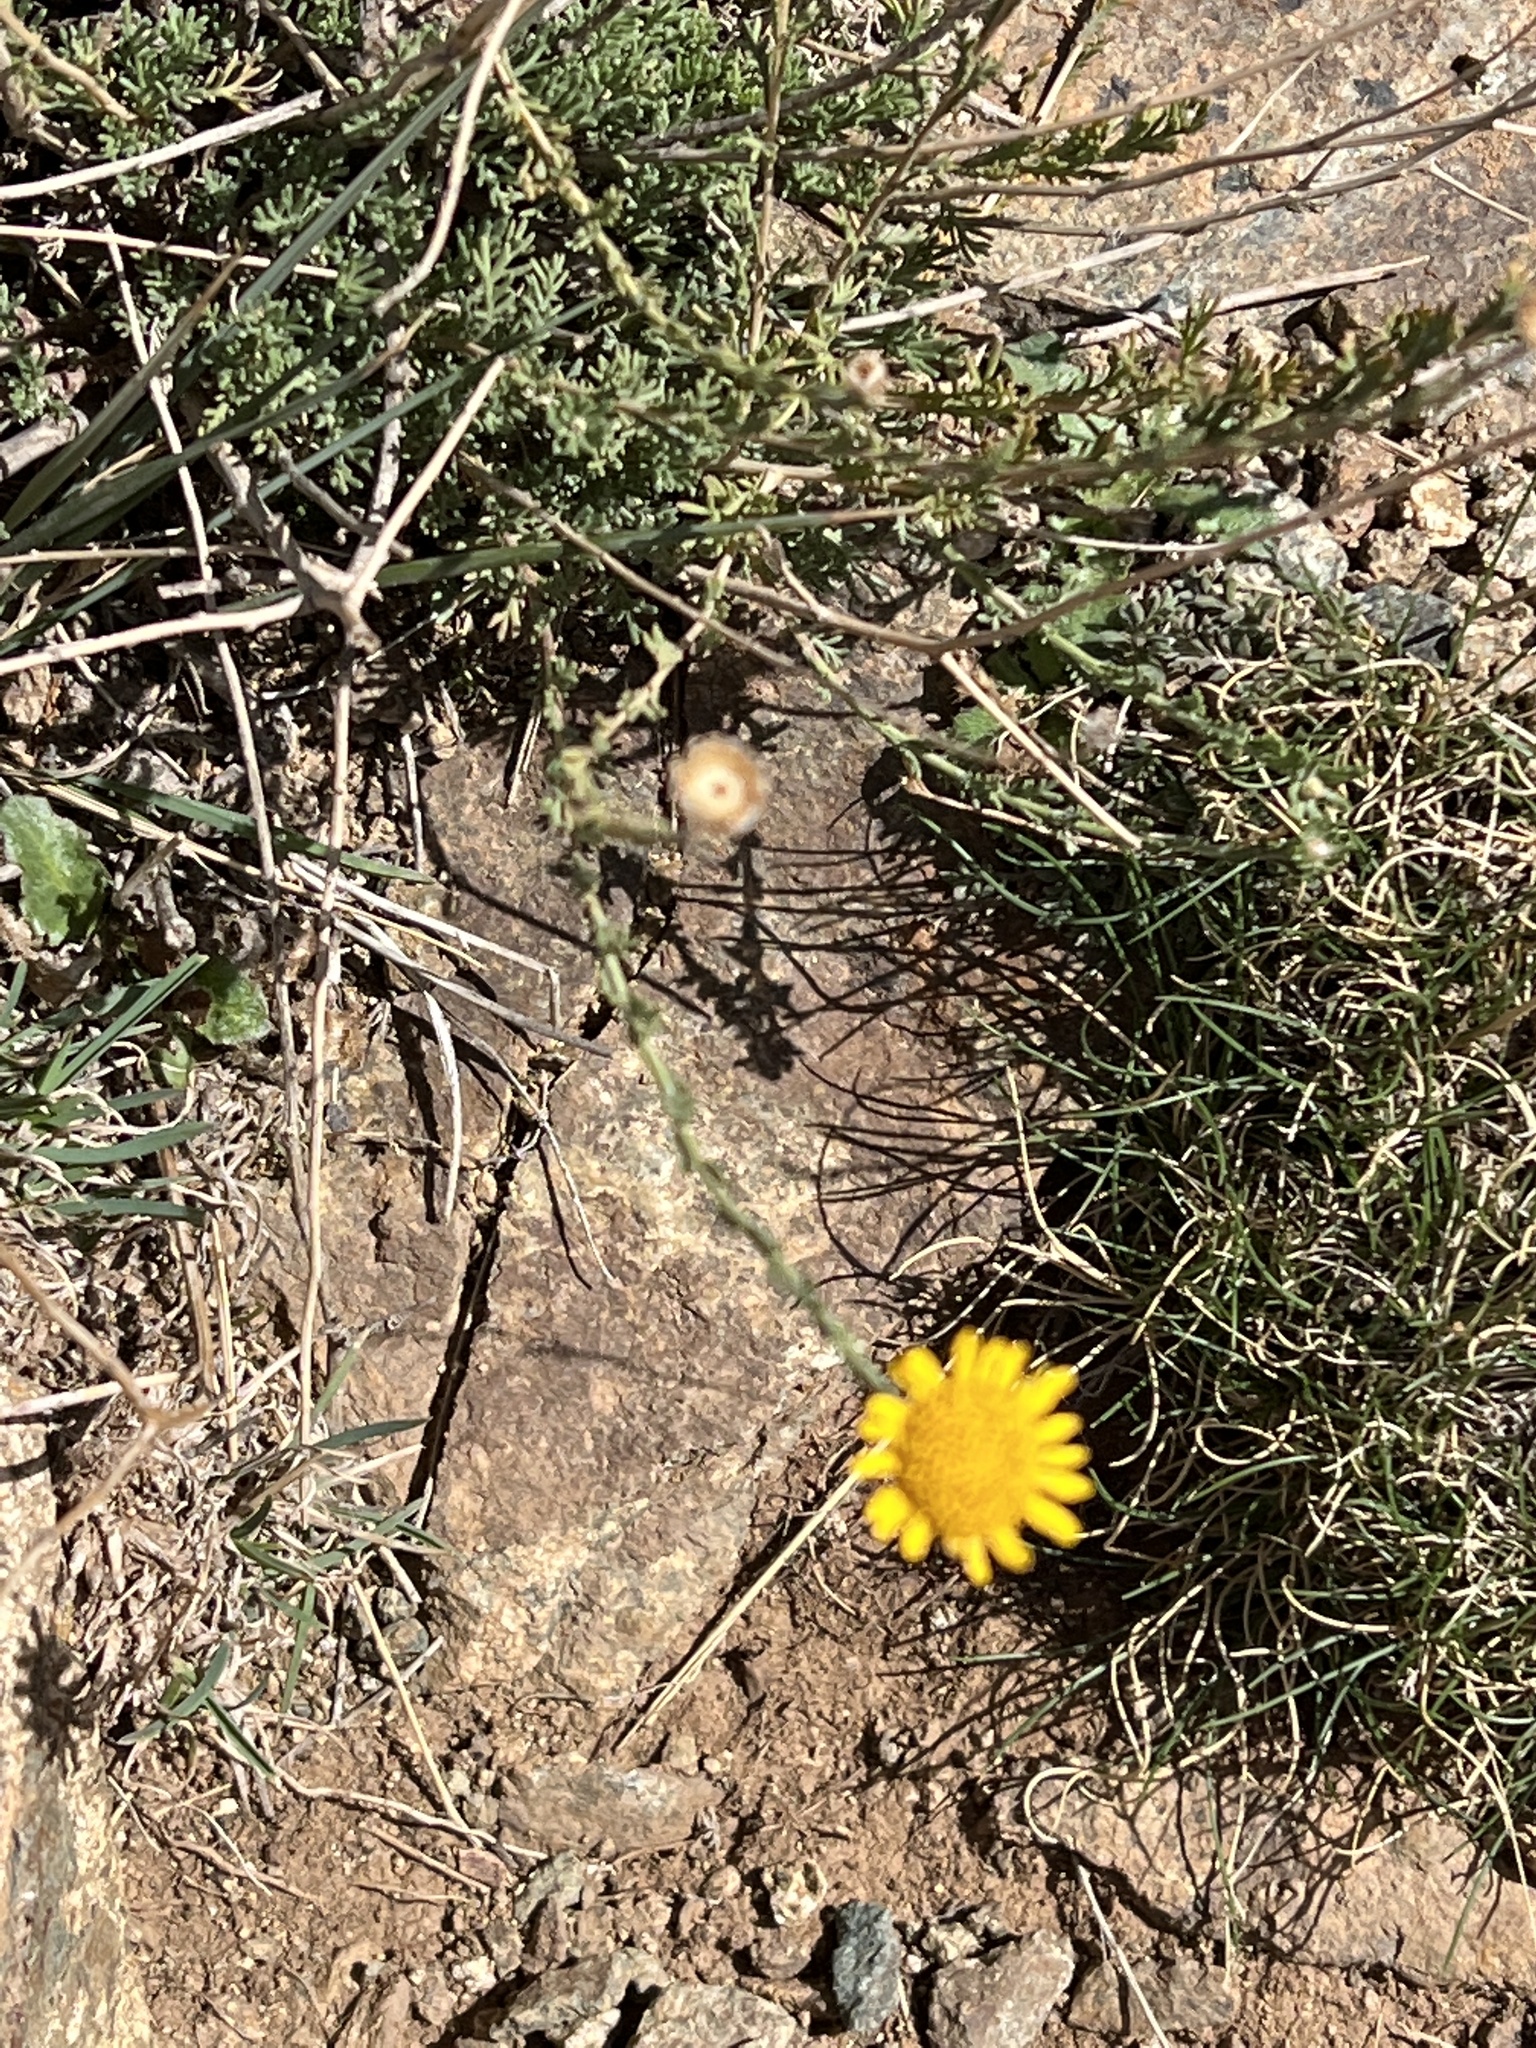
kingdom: Plantae
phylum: Tracheophyta
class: Magnoliopsida
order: Asterales
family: Asteraceae
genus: Cladanthus
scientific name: Cladanthus scariosus
